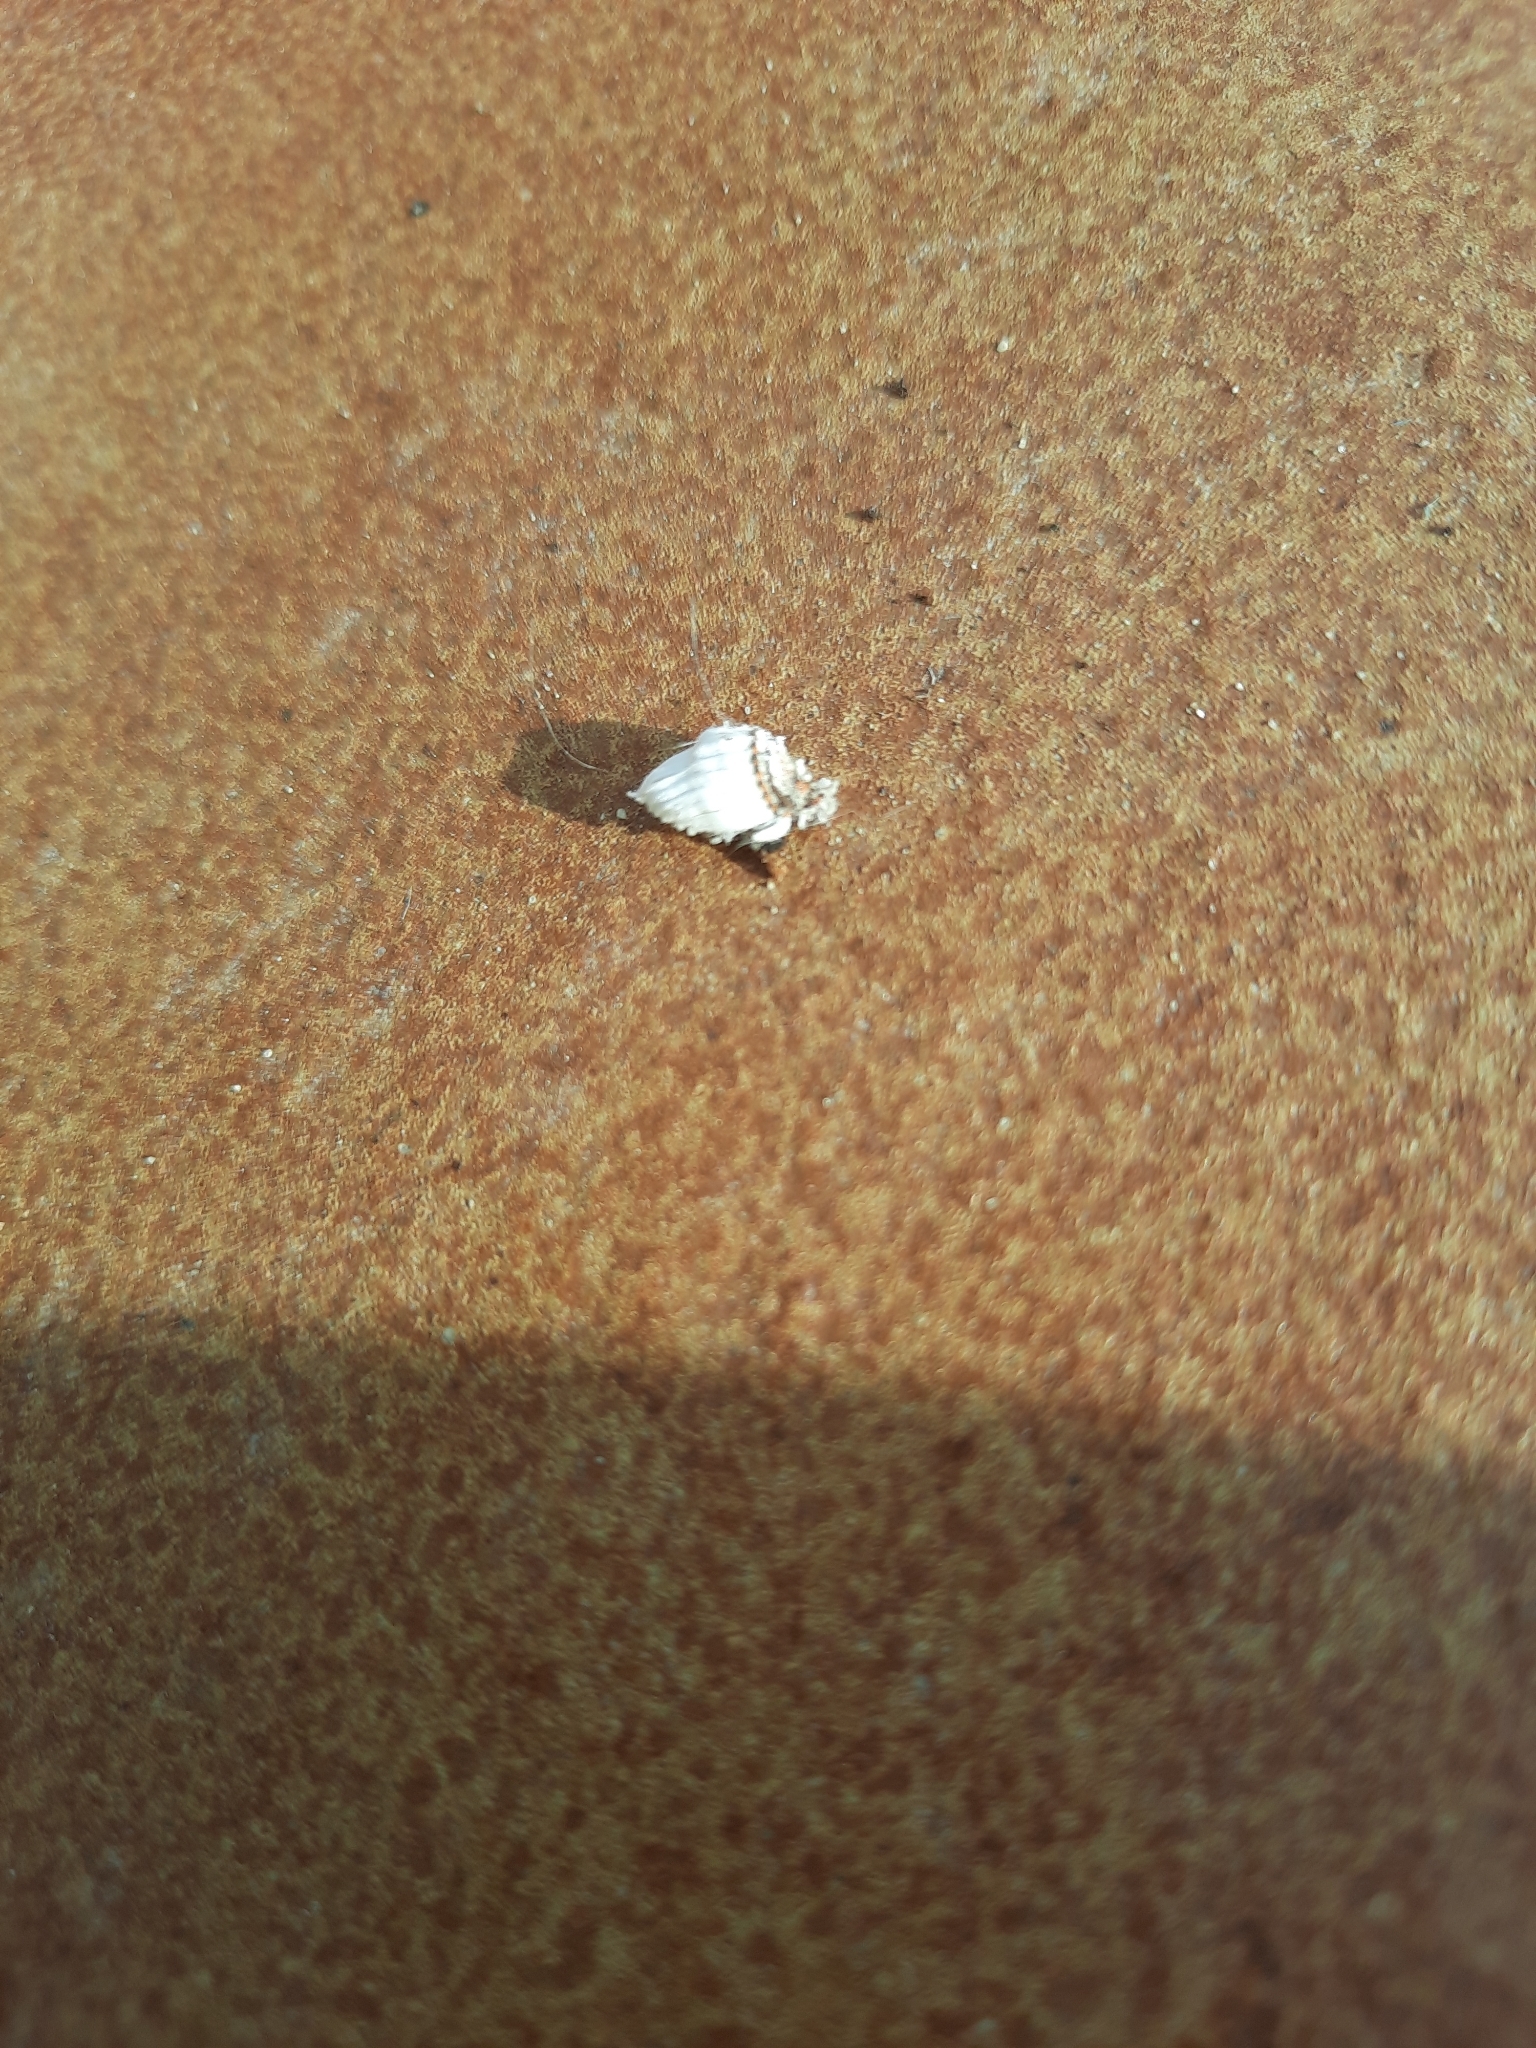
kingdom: Animalia
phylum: Arthropoda
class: Insecta
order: Hemiptera
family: Margarodidae
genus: Icerya
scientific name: Icerya purchasi
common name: Cottony cushion scale
